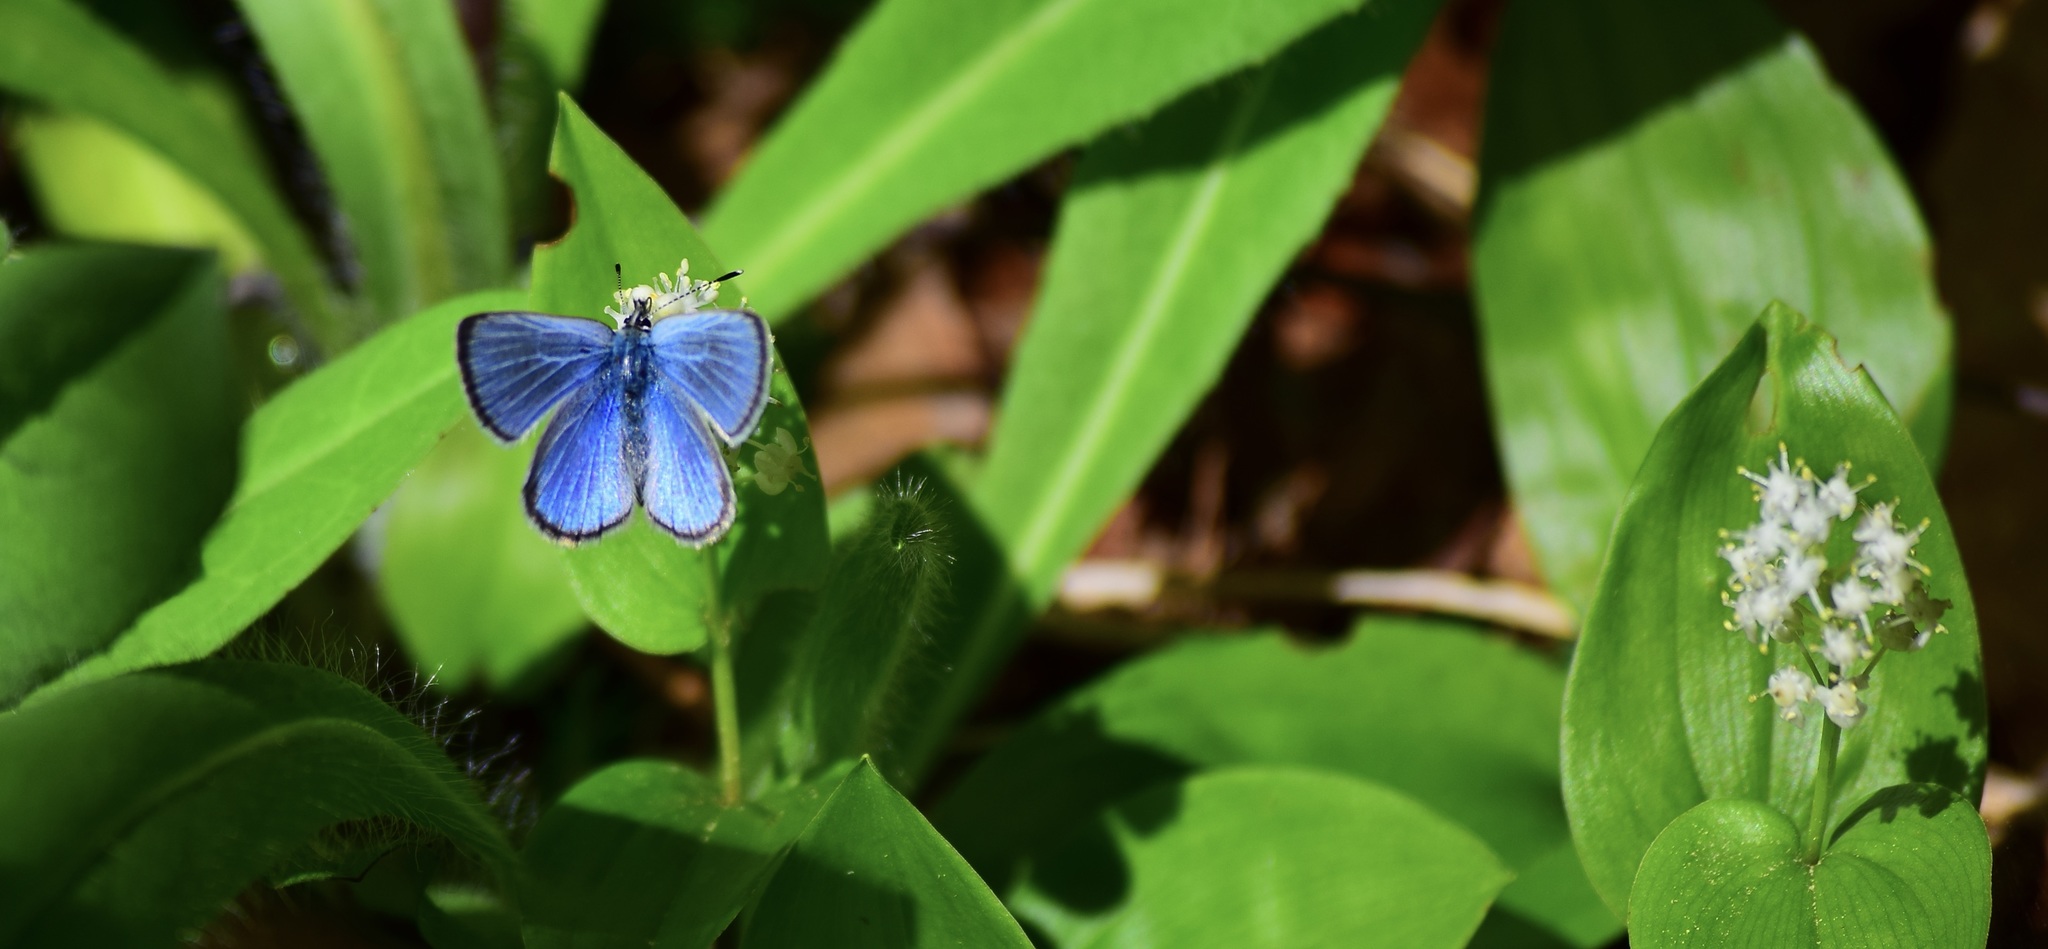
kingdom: Animalia
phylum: Arthropoda
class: Insecta
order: Lepidoptera
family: Lycaenidae
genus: Glaucopsyche
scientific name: Glaucopsyche lygdamus
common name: Silvery blue
